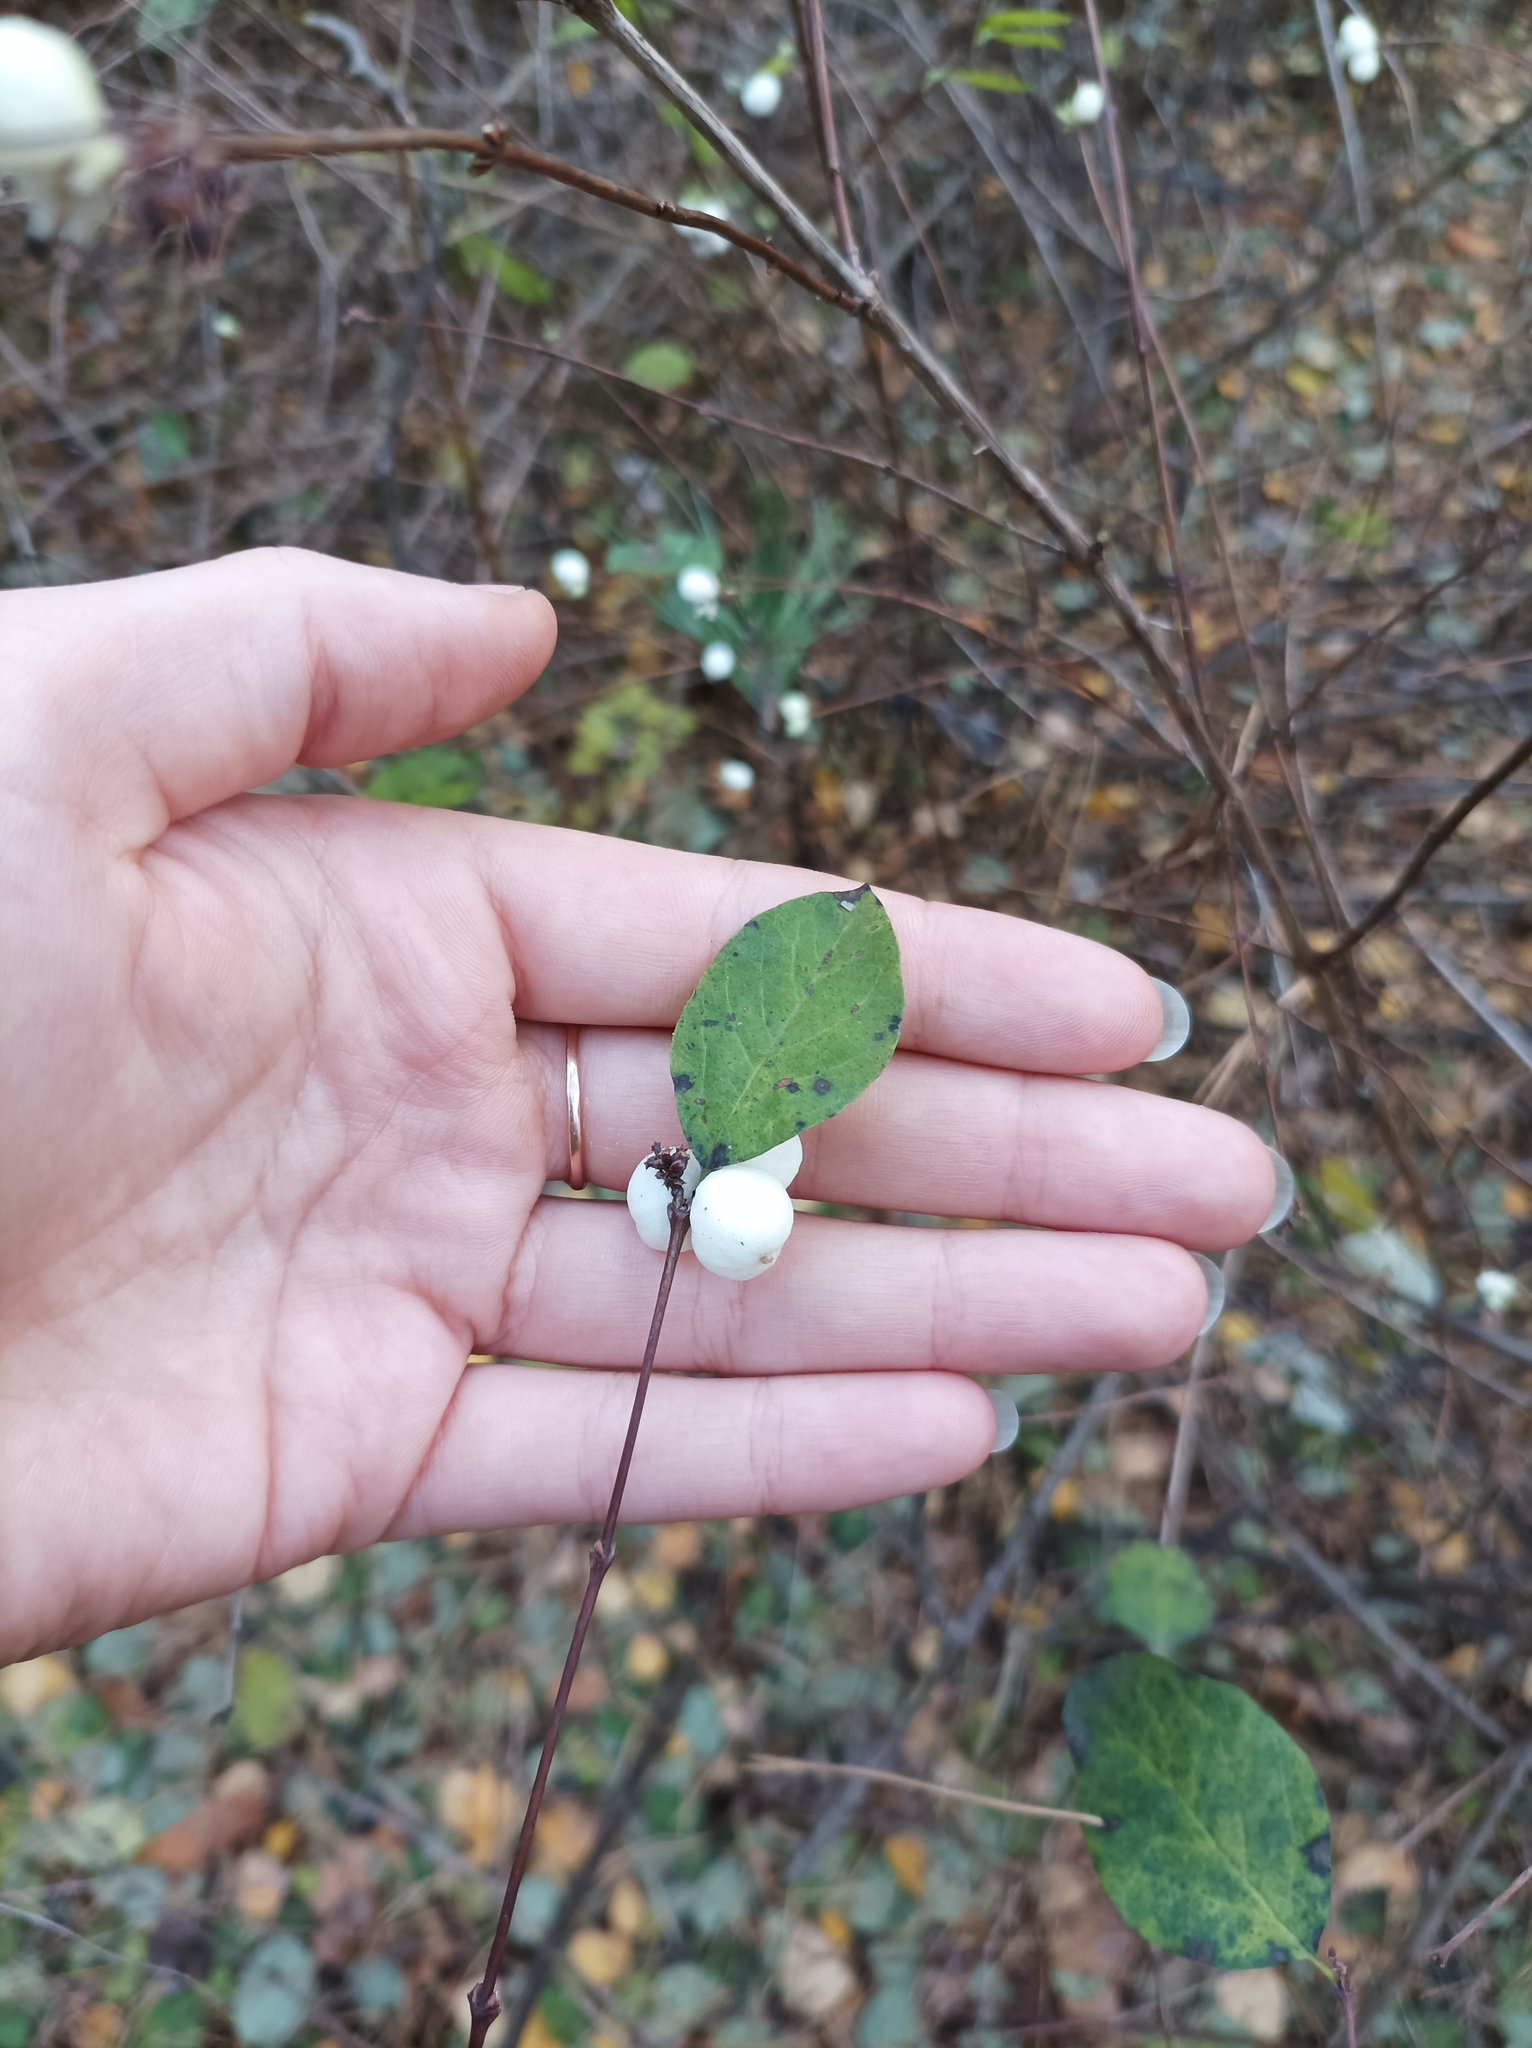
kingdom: Plantae
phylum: Tracheophyta
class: Magnoliopsida
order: Dipsacales
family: Caprifoliaceae
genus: Symphoricarpos
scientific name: Symphoricarpos albus
